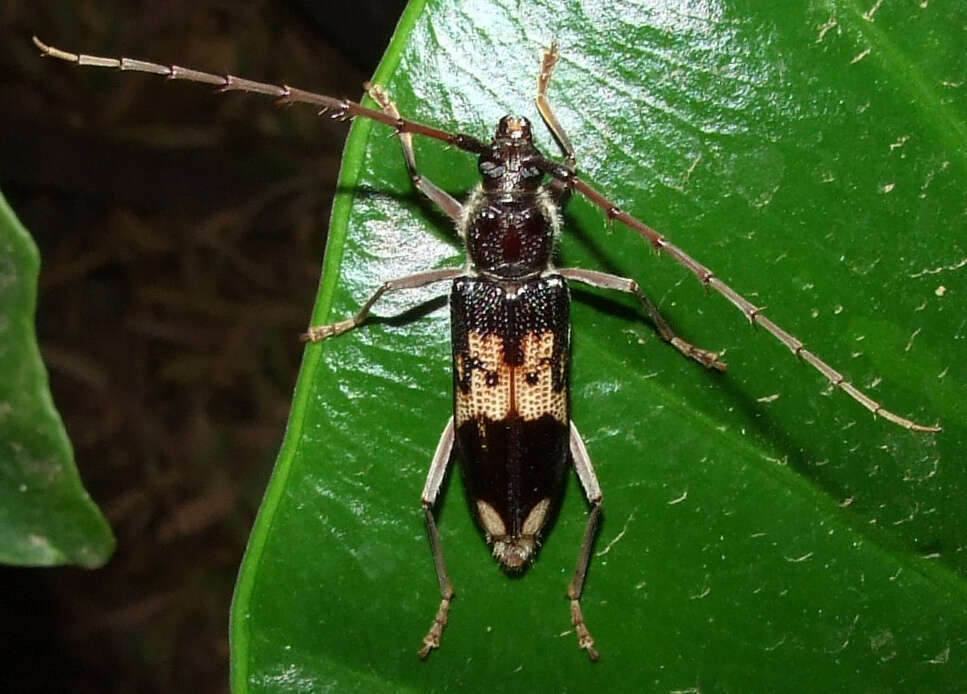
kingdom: Animalia
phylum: Arthropoda
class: Insecta
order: Coleoptera
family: Cerambycidae
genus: Phoracantha
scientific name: Phoracantha semipunctata
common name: Eucalyptus longhorn borer
